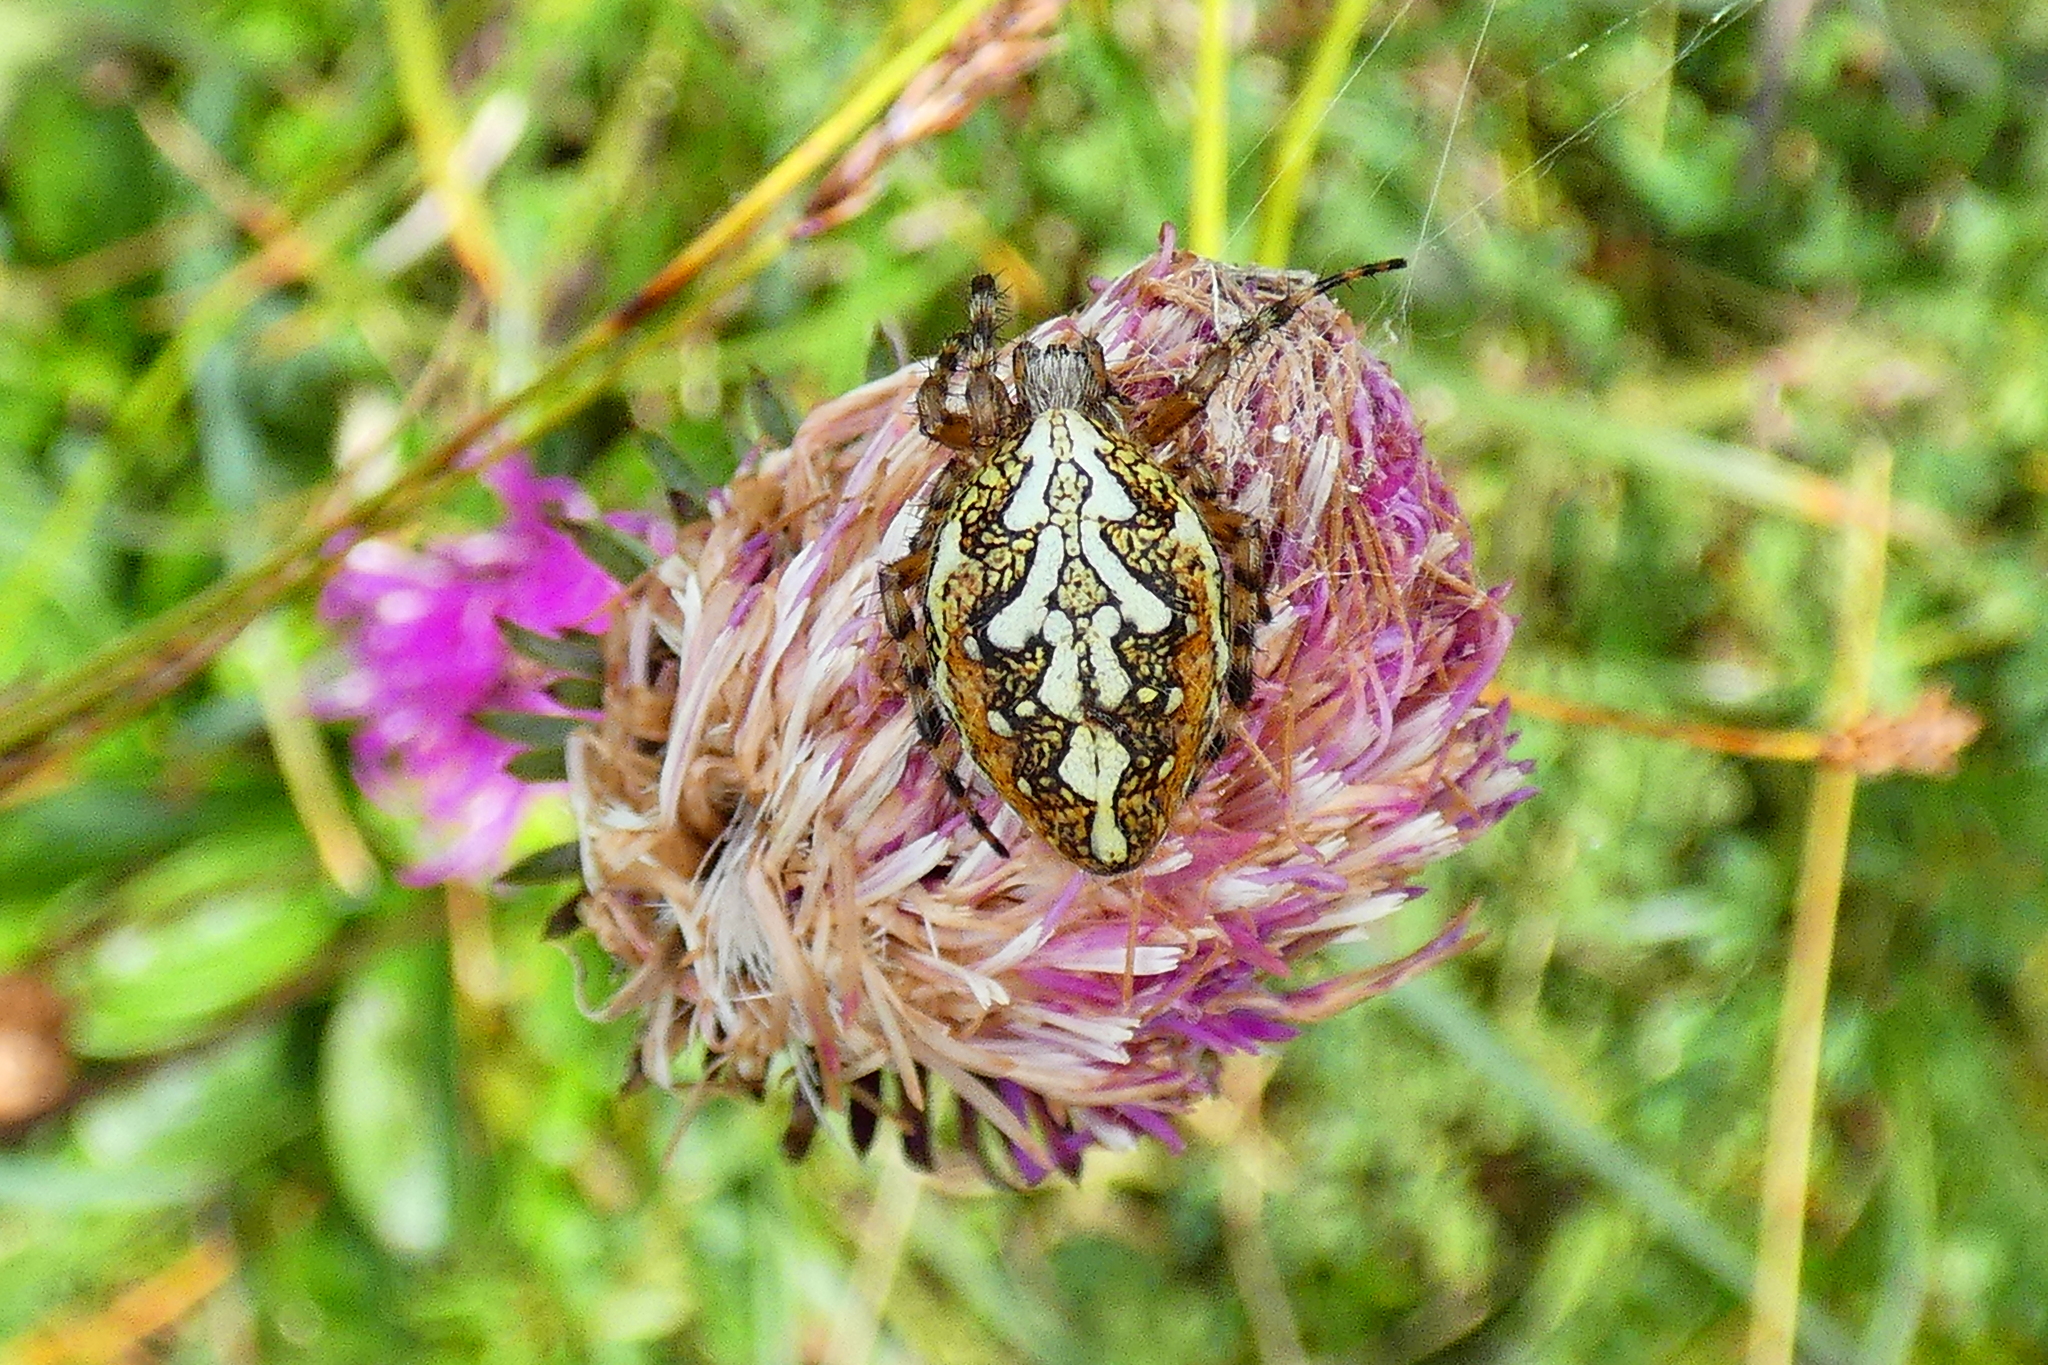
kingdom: Animalia
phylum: Arthropoda
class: Arachnida
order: Araneae
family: Araneidae
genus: Aculepeira
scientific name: Aculepeira ceropegia
